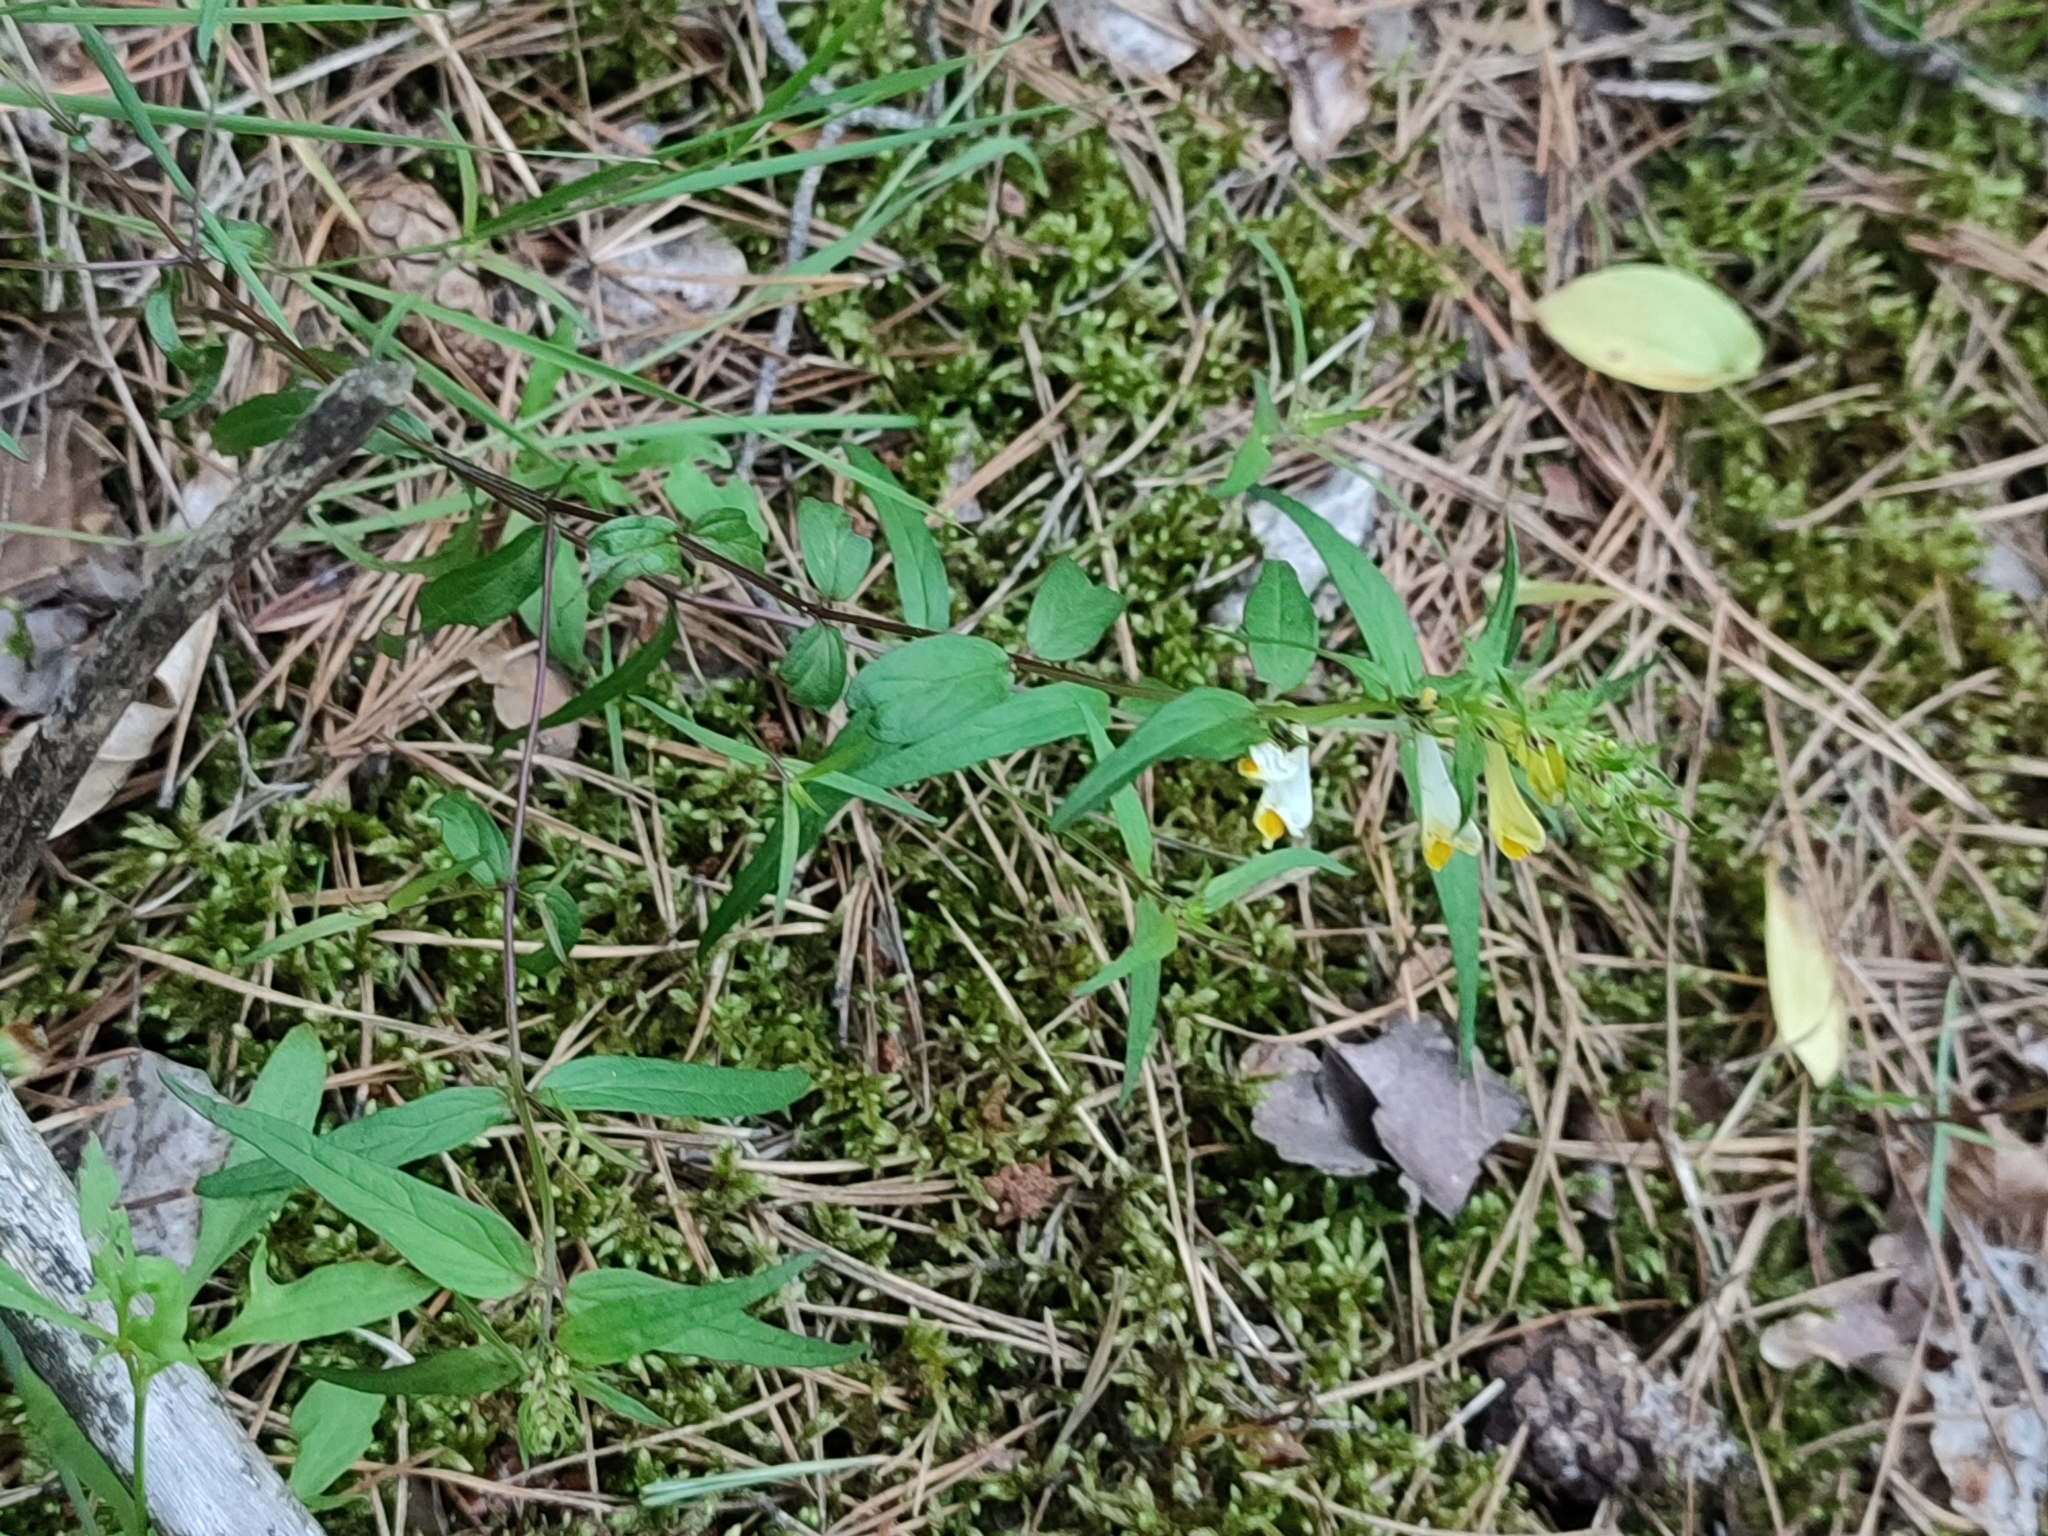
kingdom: Plantae
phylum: Tracheophyta
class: Magnoliopsida
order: Lamiales
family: Orobanchaceae
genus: Melampyrum
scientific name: Melampyrum pratense
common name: Common cow-wheat
